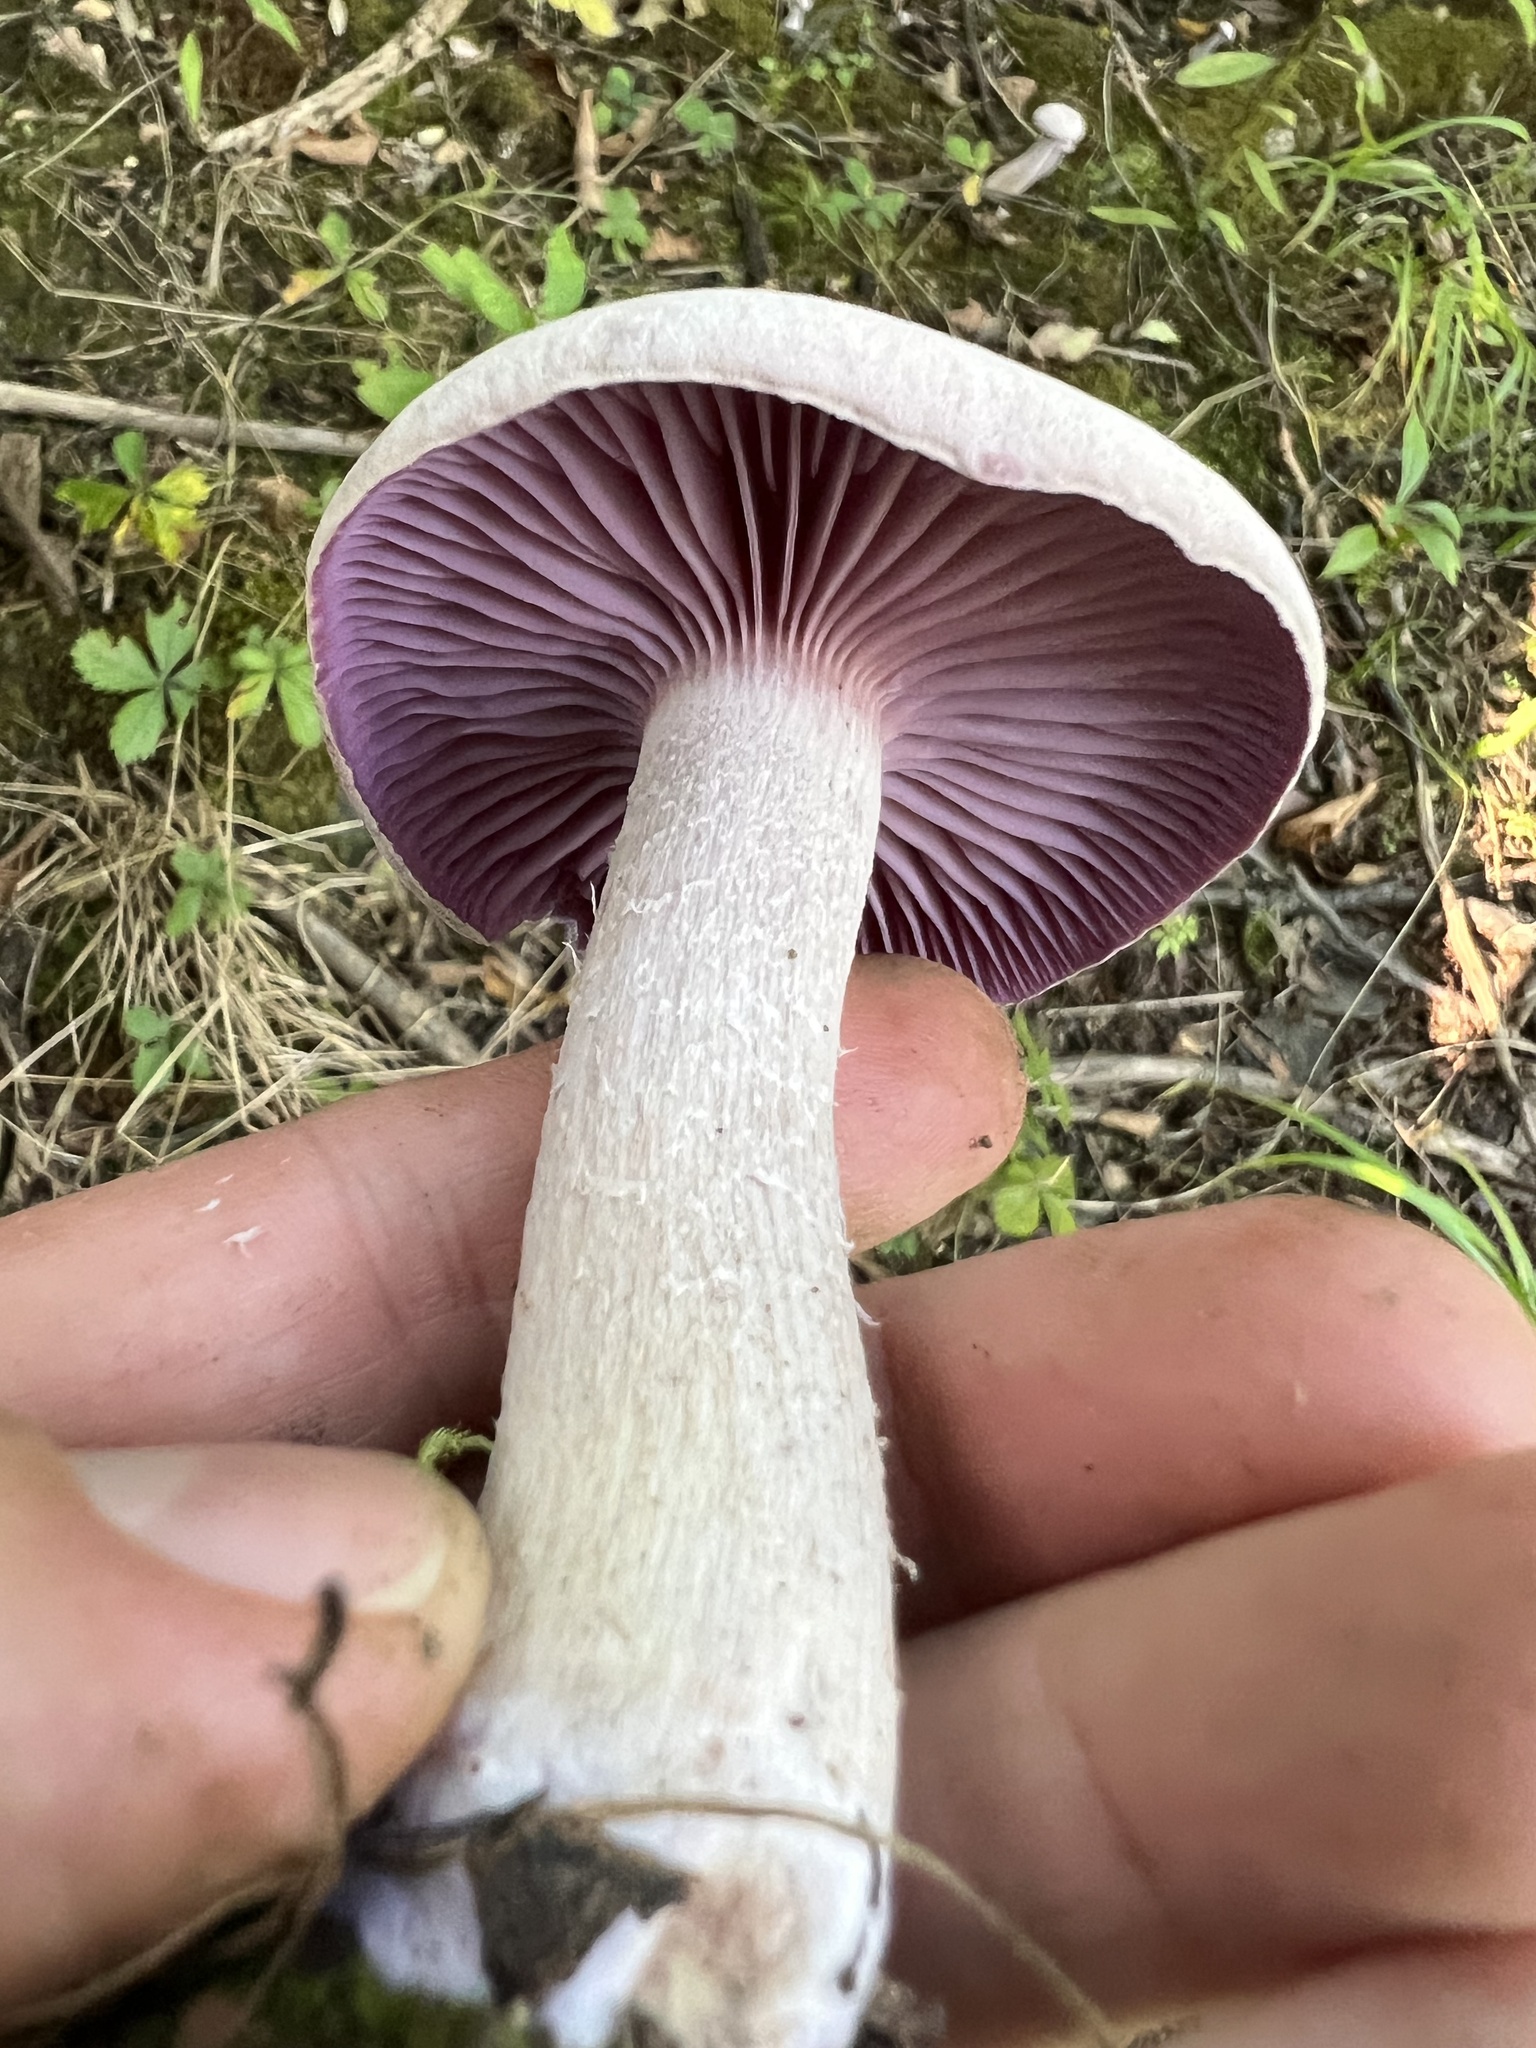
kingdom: Fungi
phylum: Basidiomycota
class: Agaricomycetes
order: Agaricales
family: Hydnangiaceae
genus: Laccaria
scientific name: Laccaria ochropurpurea
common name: Purple laccaria
